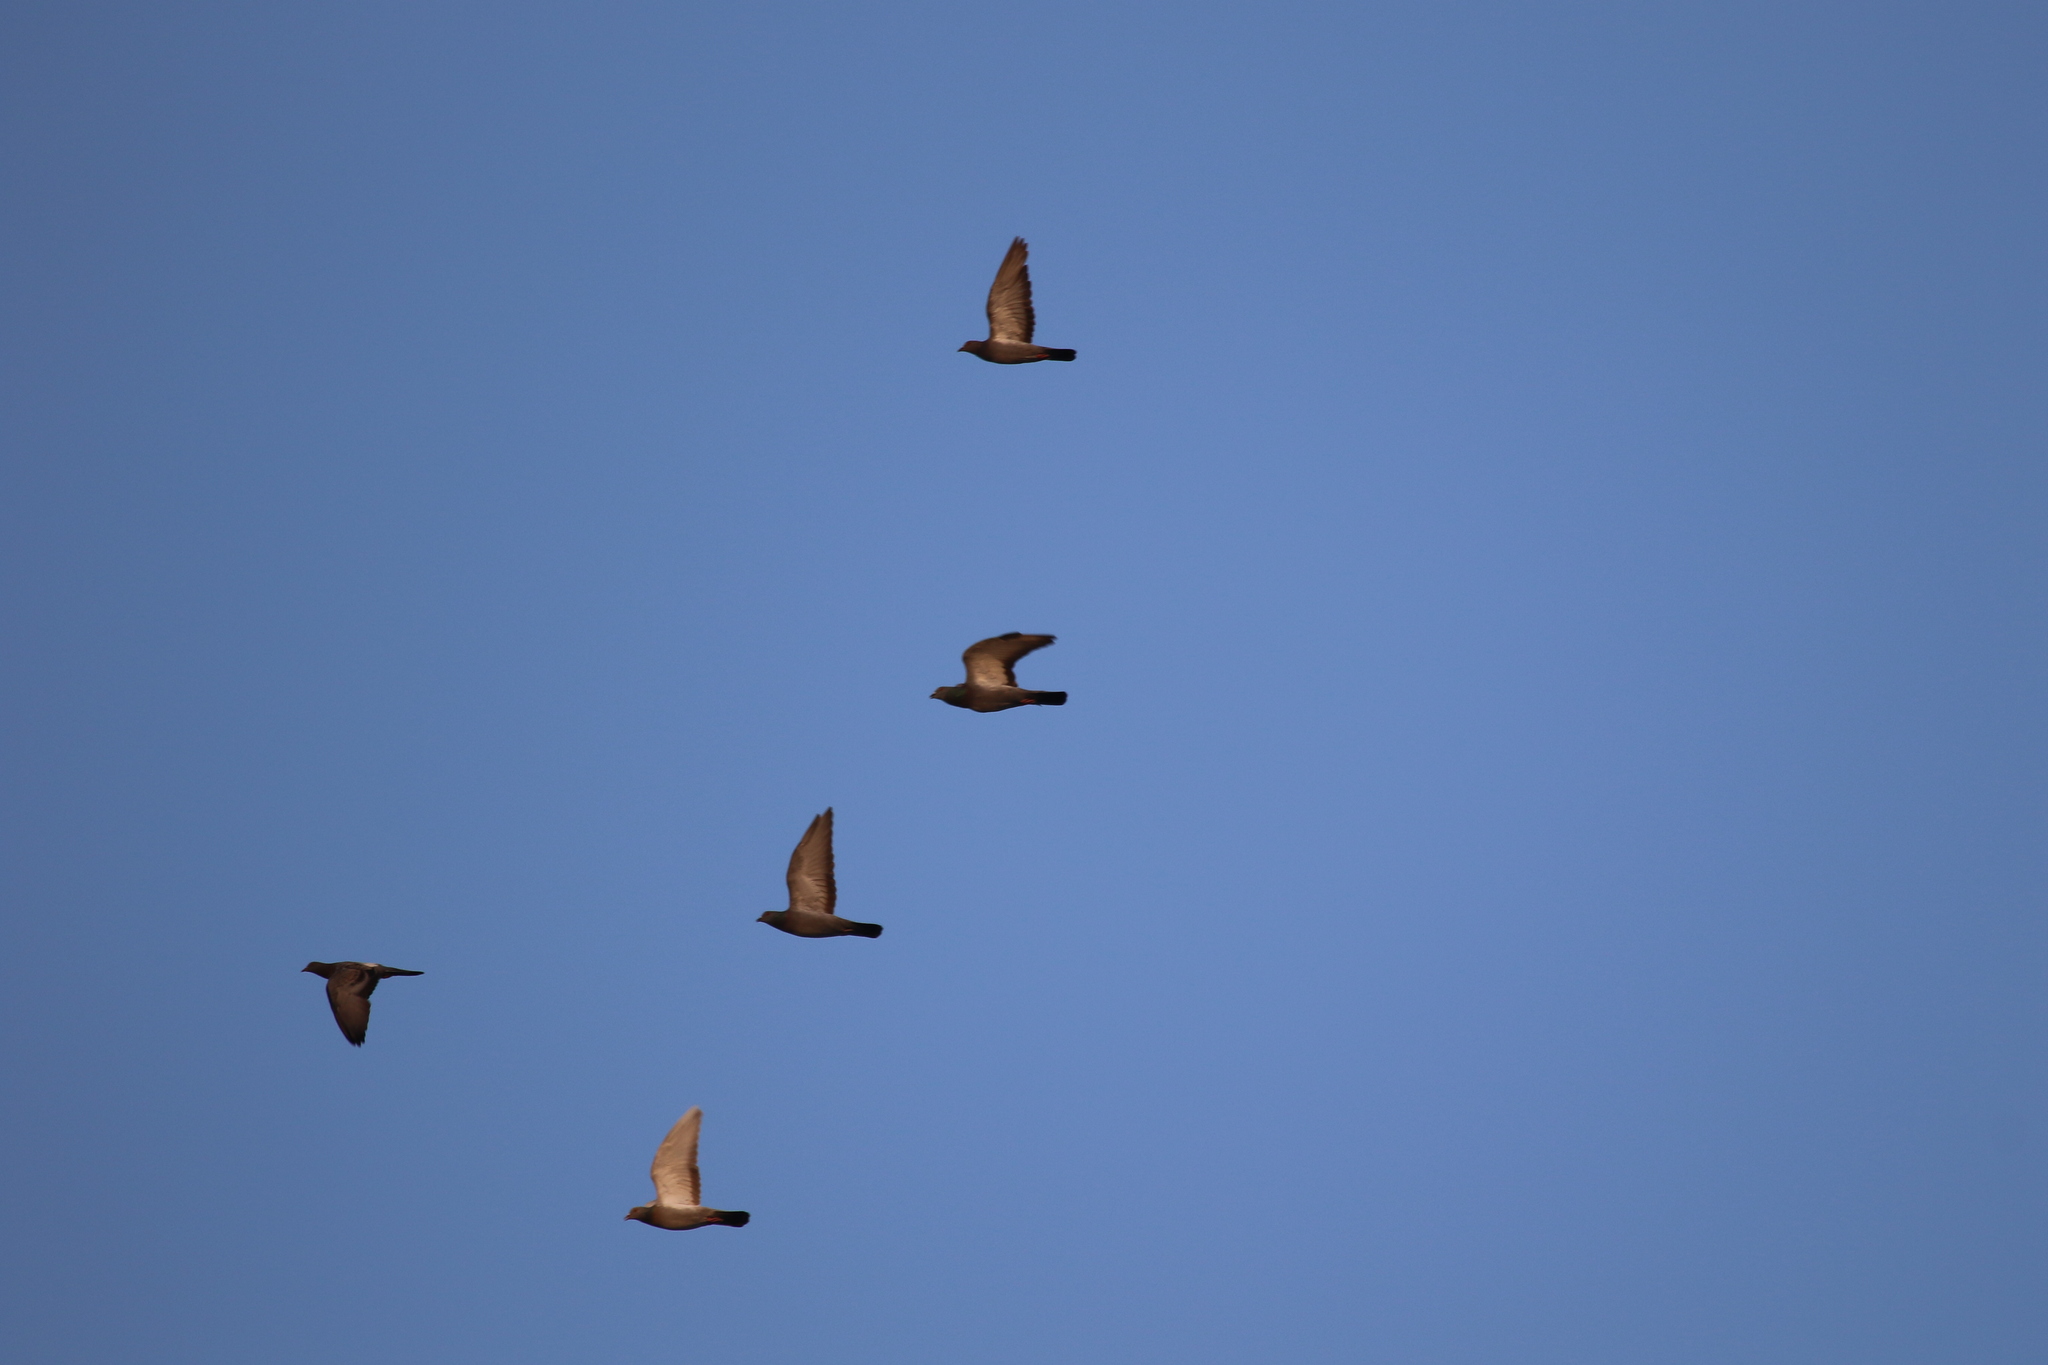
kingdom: Animalia
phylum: Chordata
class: Aves
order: Columbiformes
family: Columbidae
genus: Columba
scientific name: Columba livia
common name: Rock pigeon
